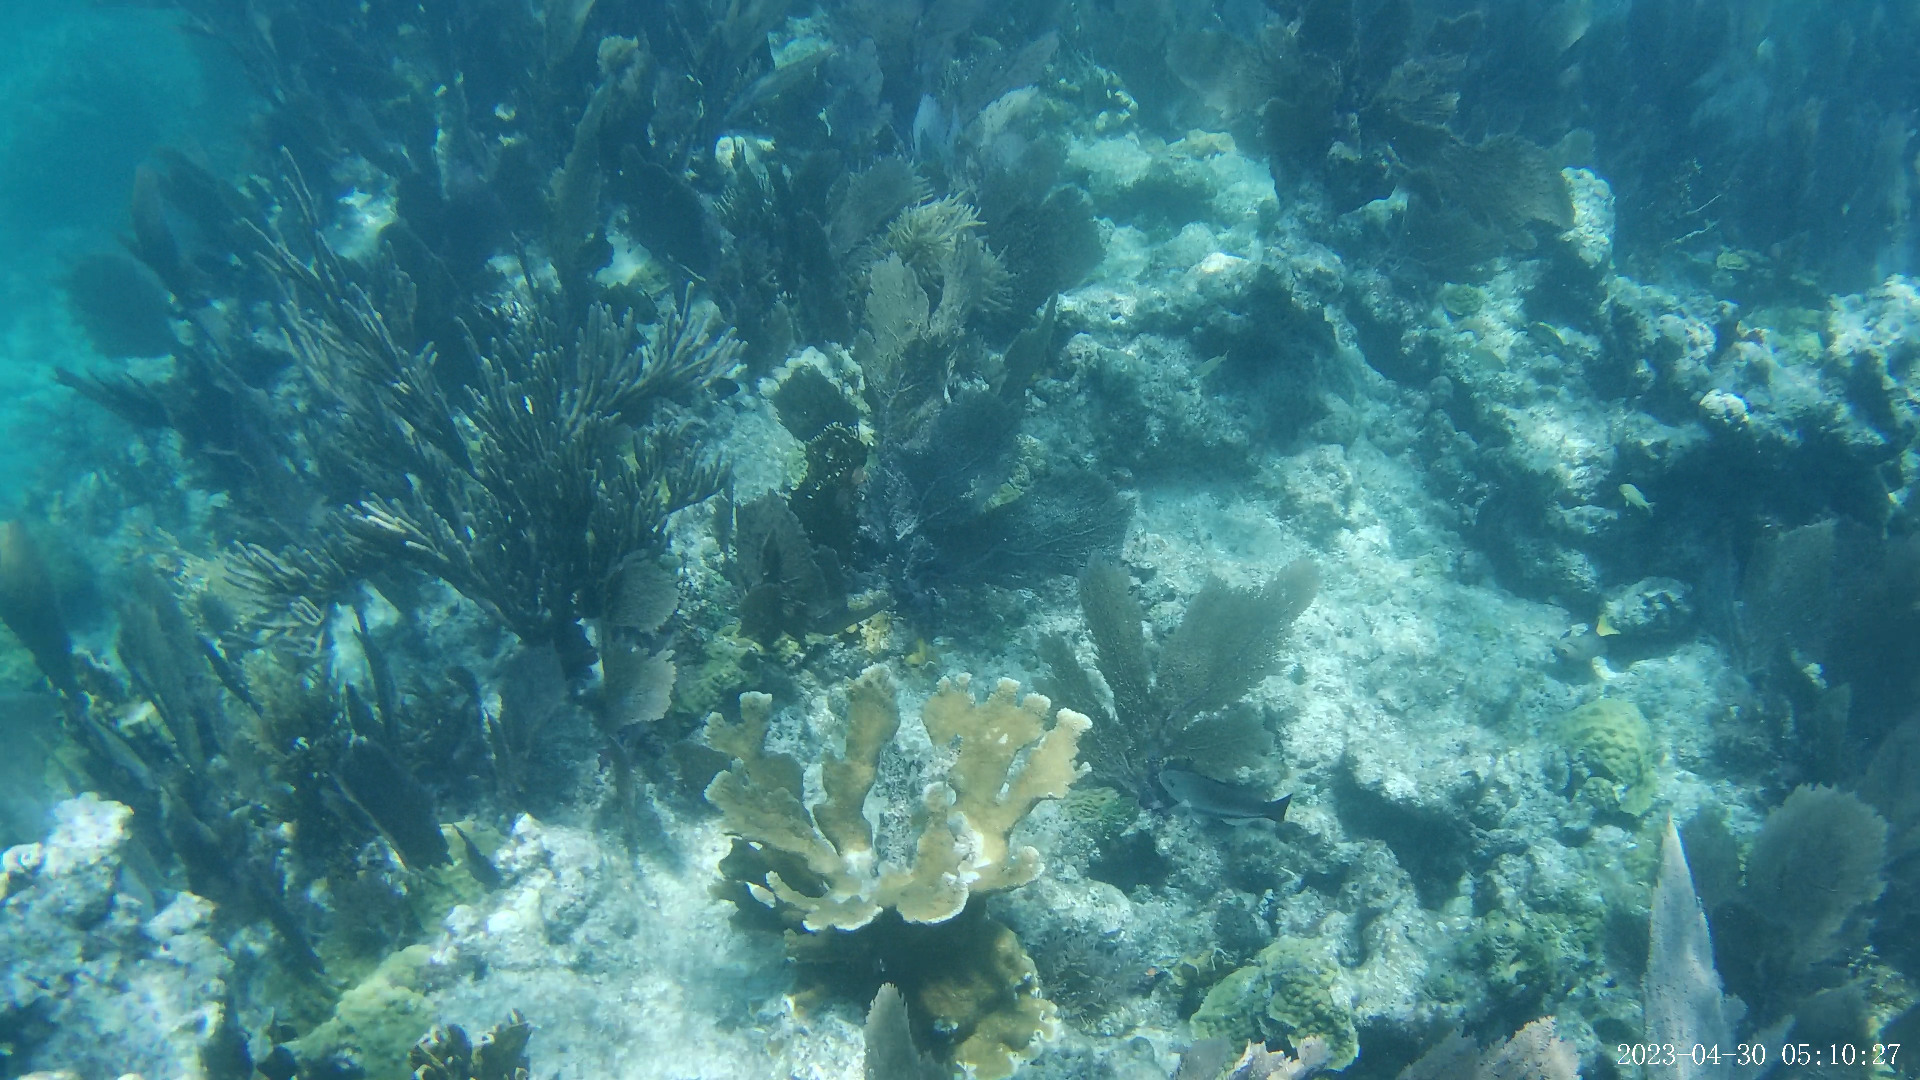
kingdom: Animalia
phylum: Cnidaria
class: Anthozoa
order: Scleractinia
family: Acroporidae
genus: Acropora
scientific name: Acropora palmata
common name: Elkhorn coral
